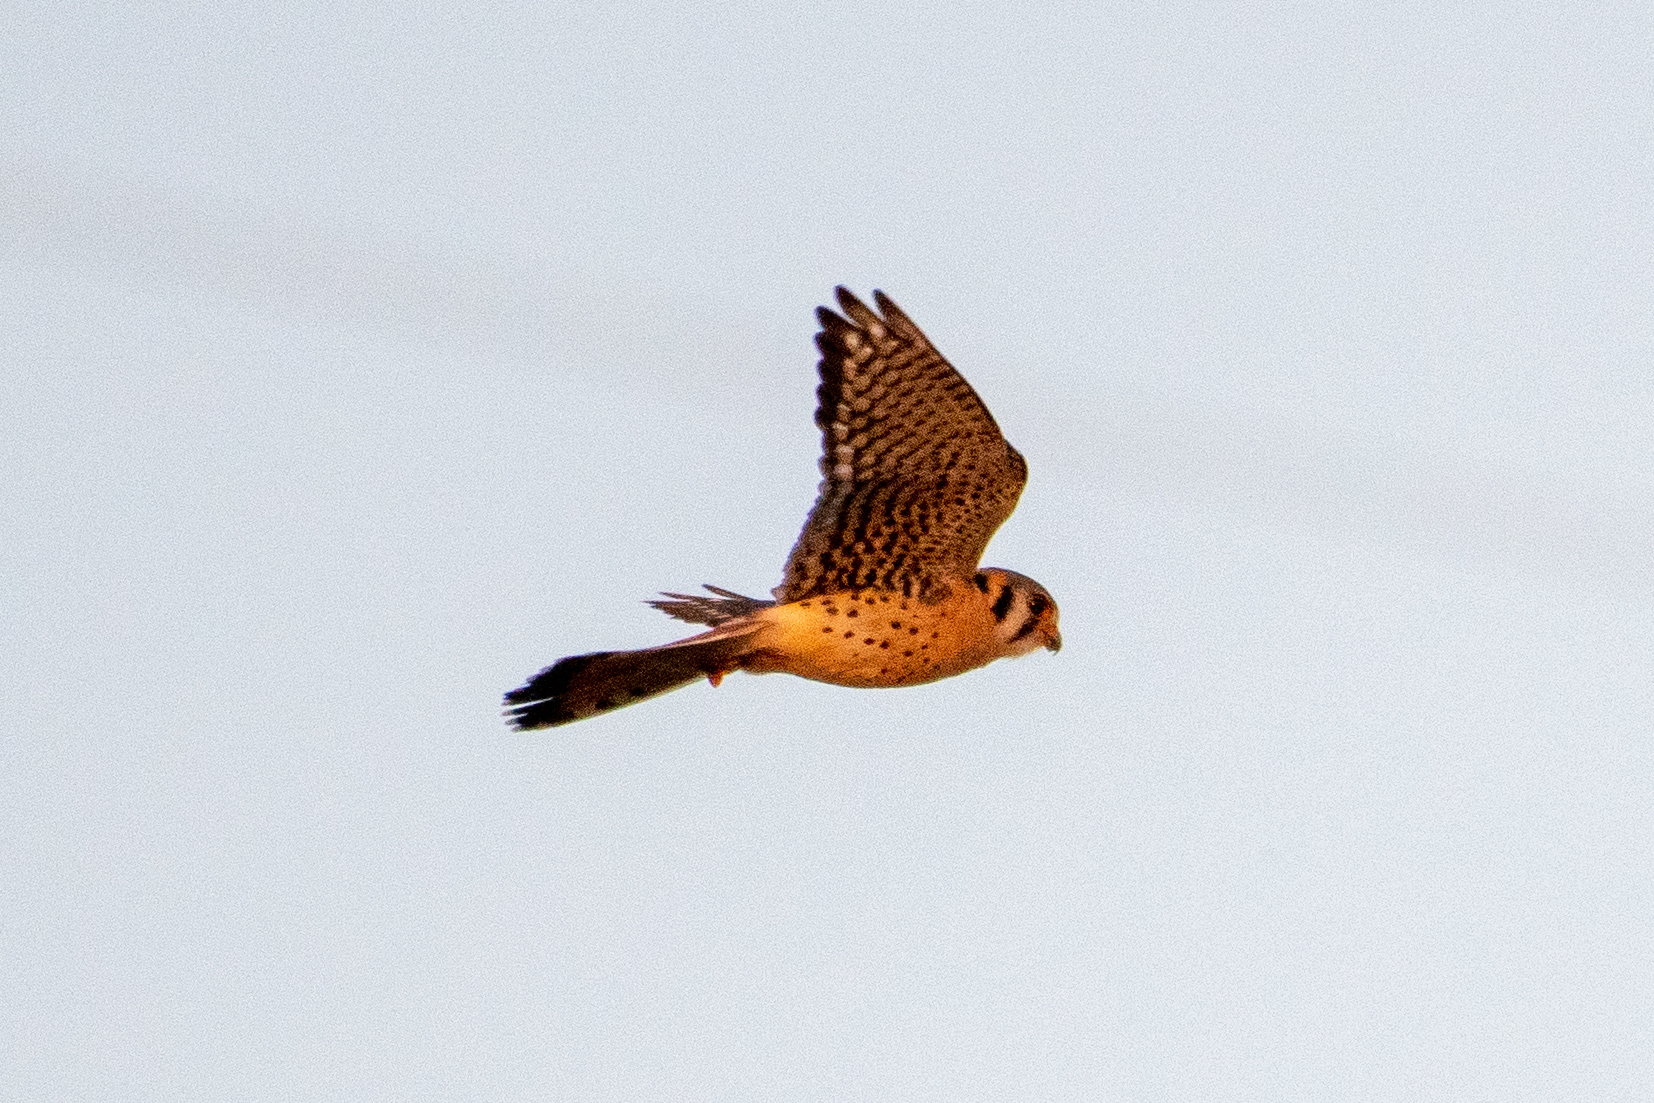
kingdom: Animalia
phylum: Chordata
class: Aves
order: Falconiformes
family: Falconidae
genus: Falco
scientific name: Falco sparverius
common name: American kestrel
